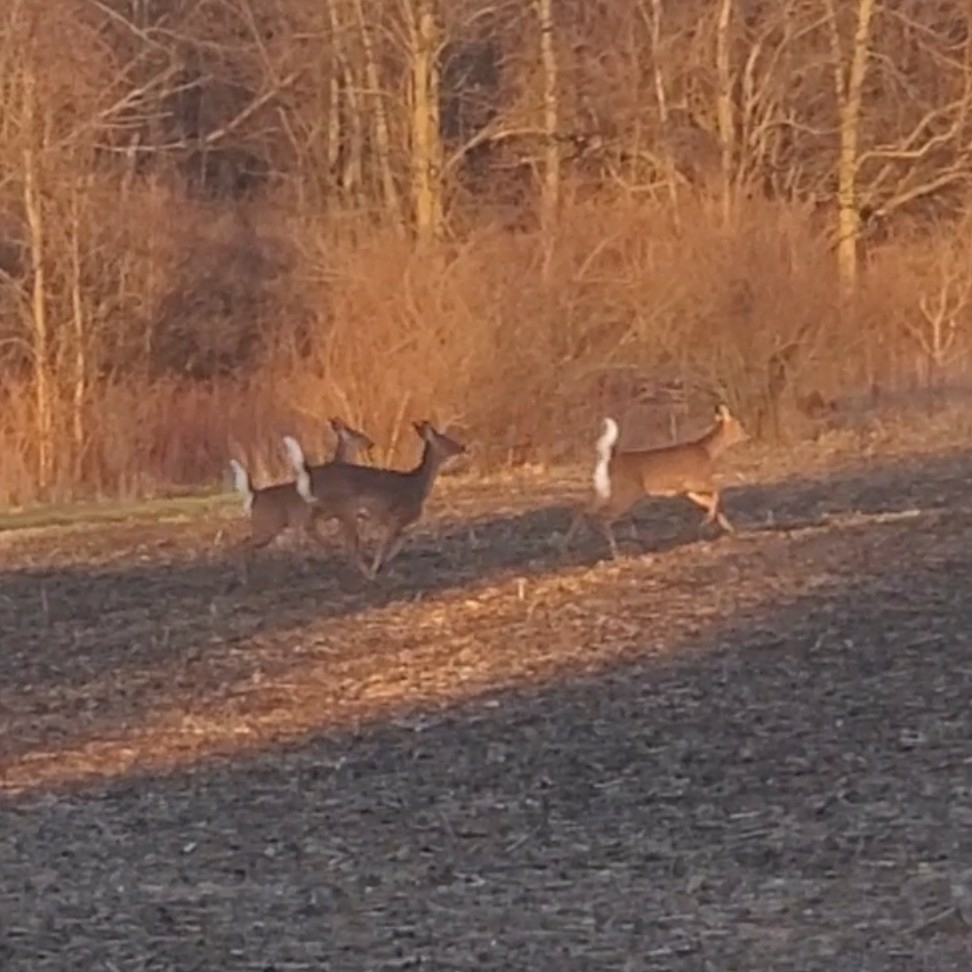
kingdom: Animalia
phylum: Chordata
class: Mammalia
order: Artiodactyla
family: Cervidae
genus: Odocoileus
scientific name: Odocoileus virginianus
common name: White-tailed deer
